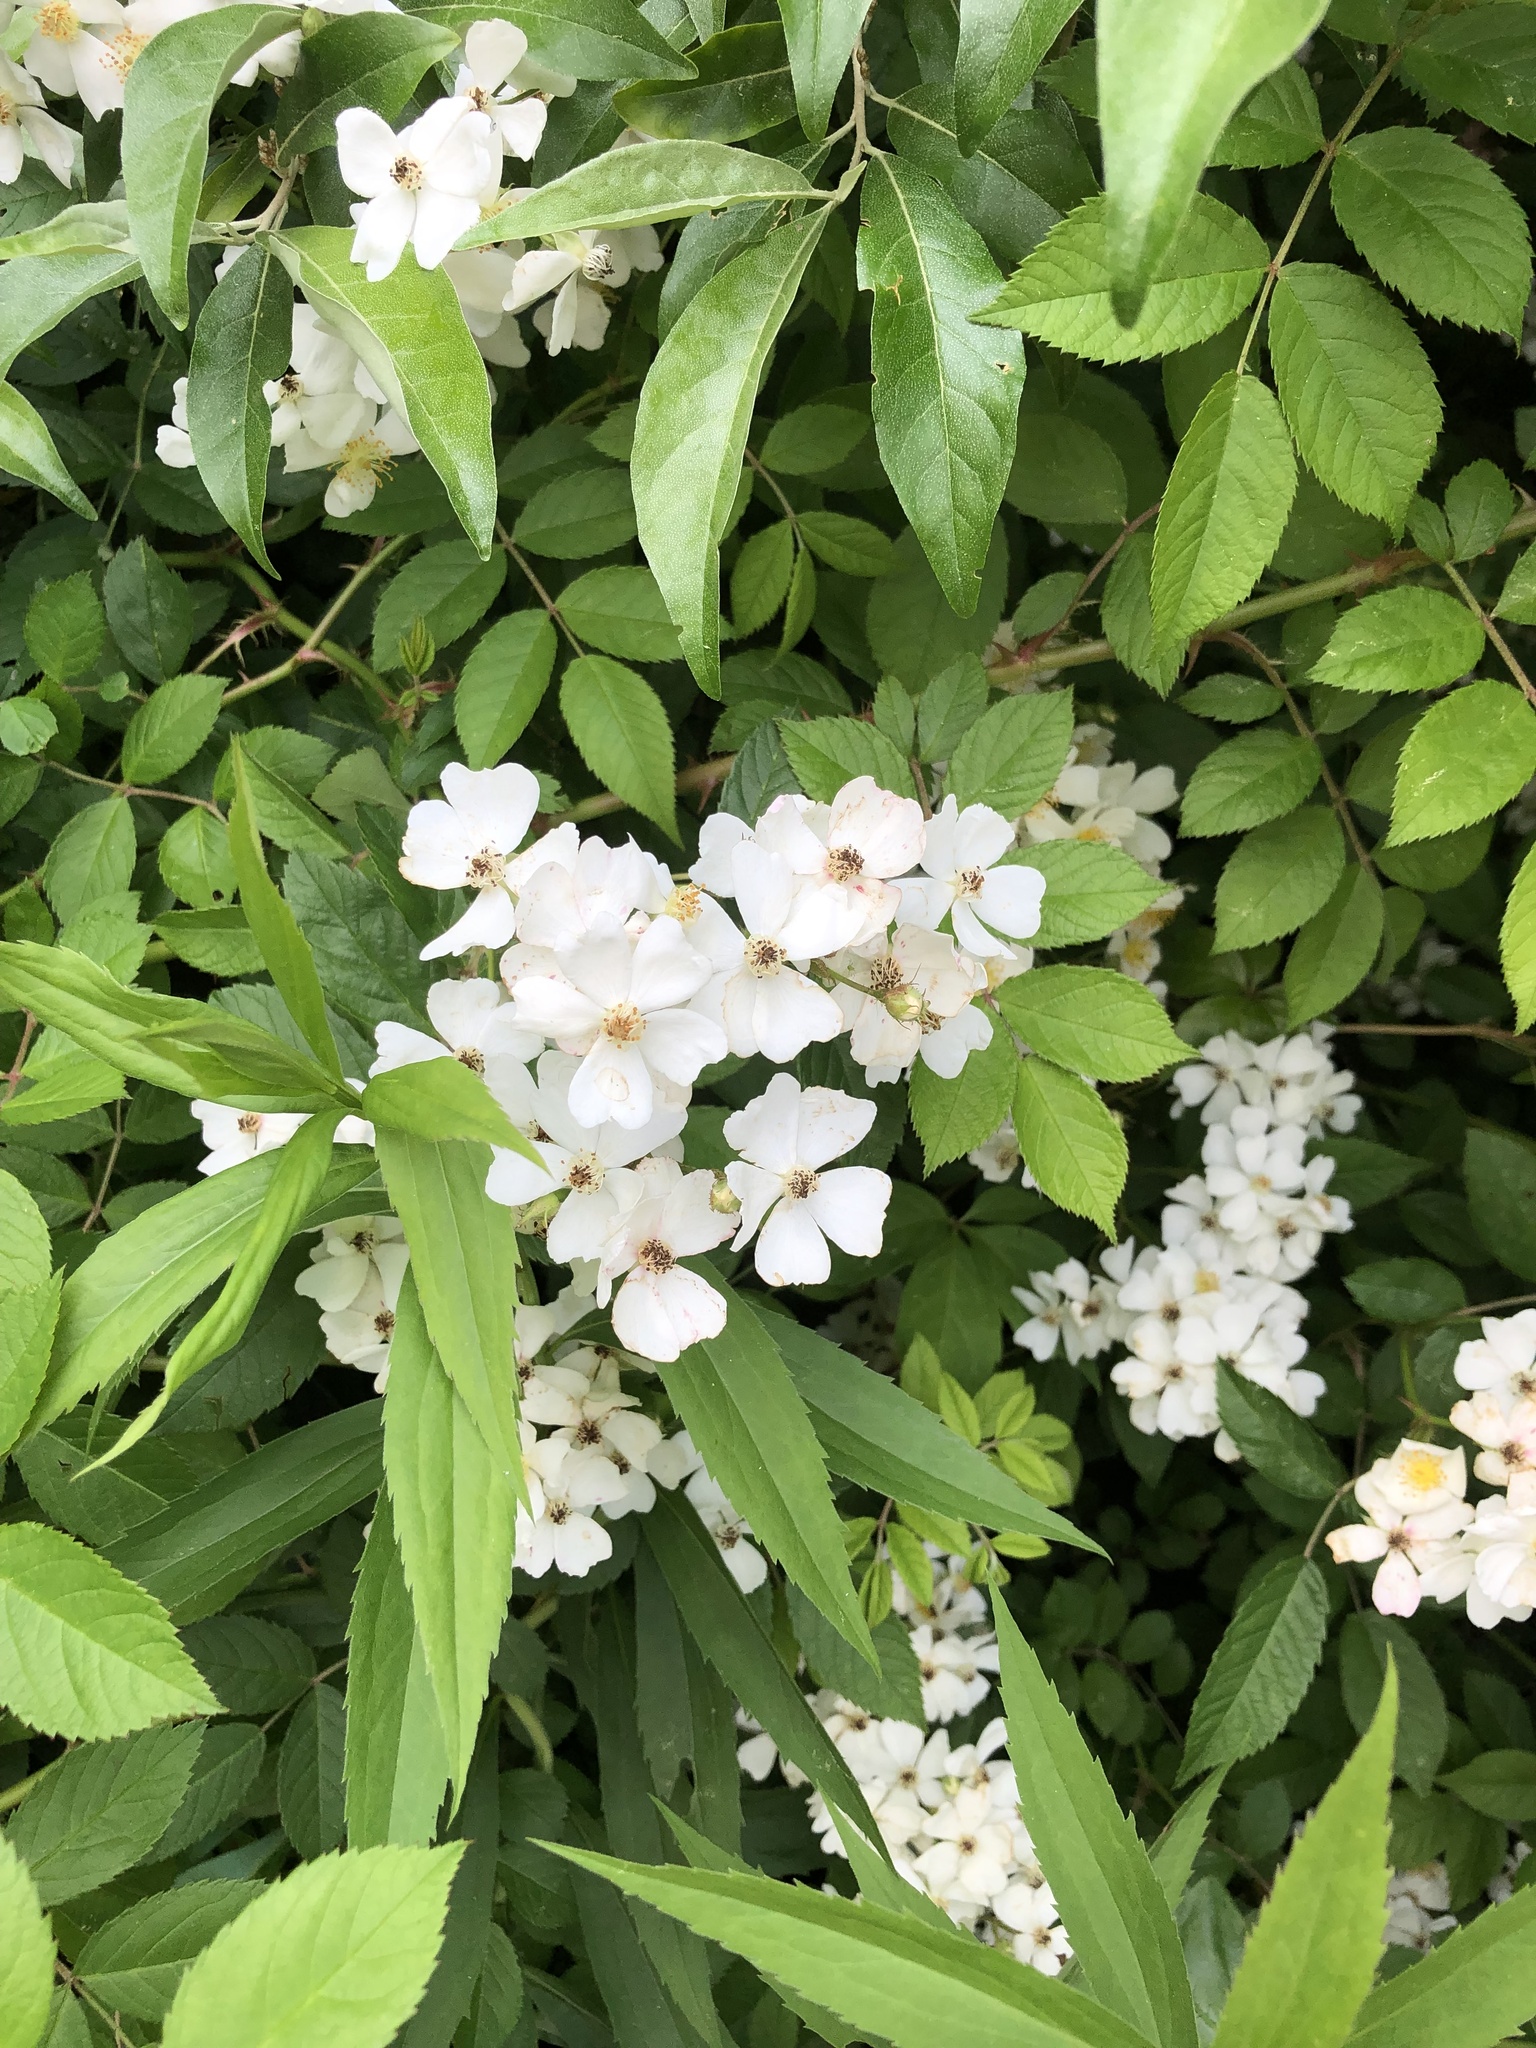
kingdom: Plantae
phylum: Tracheophyta
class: Magnoliopsida
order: Rosales
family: Rosaceae
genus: Rosa
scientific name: Rosa multiflora
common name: Multiflora rose
